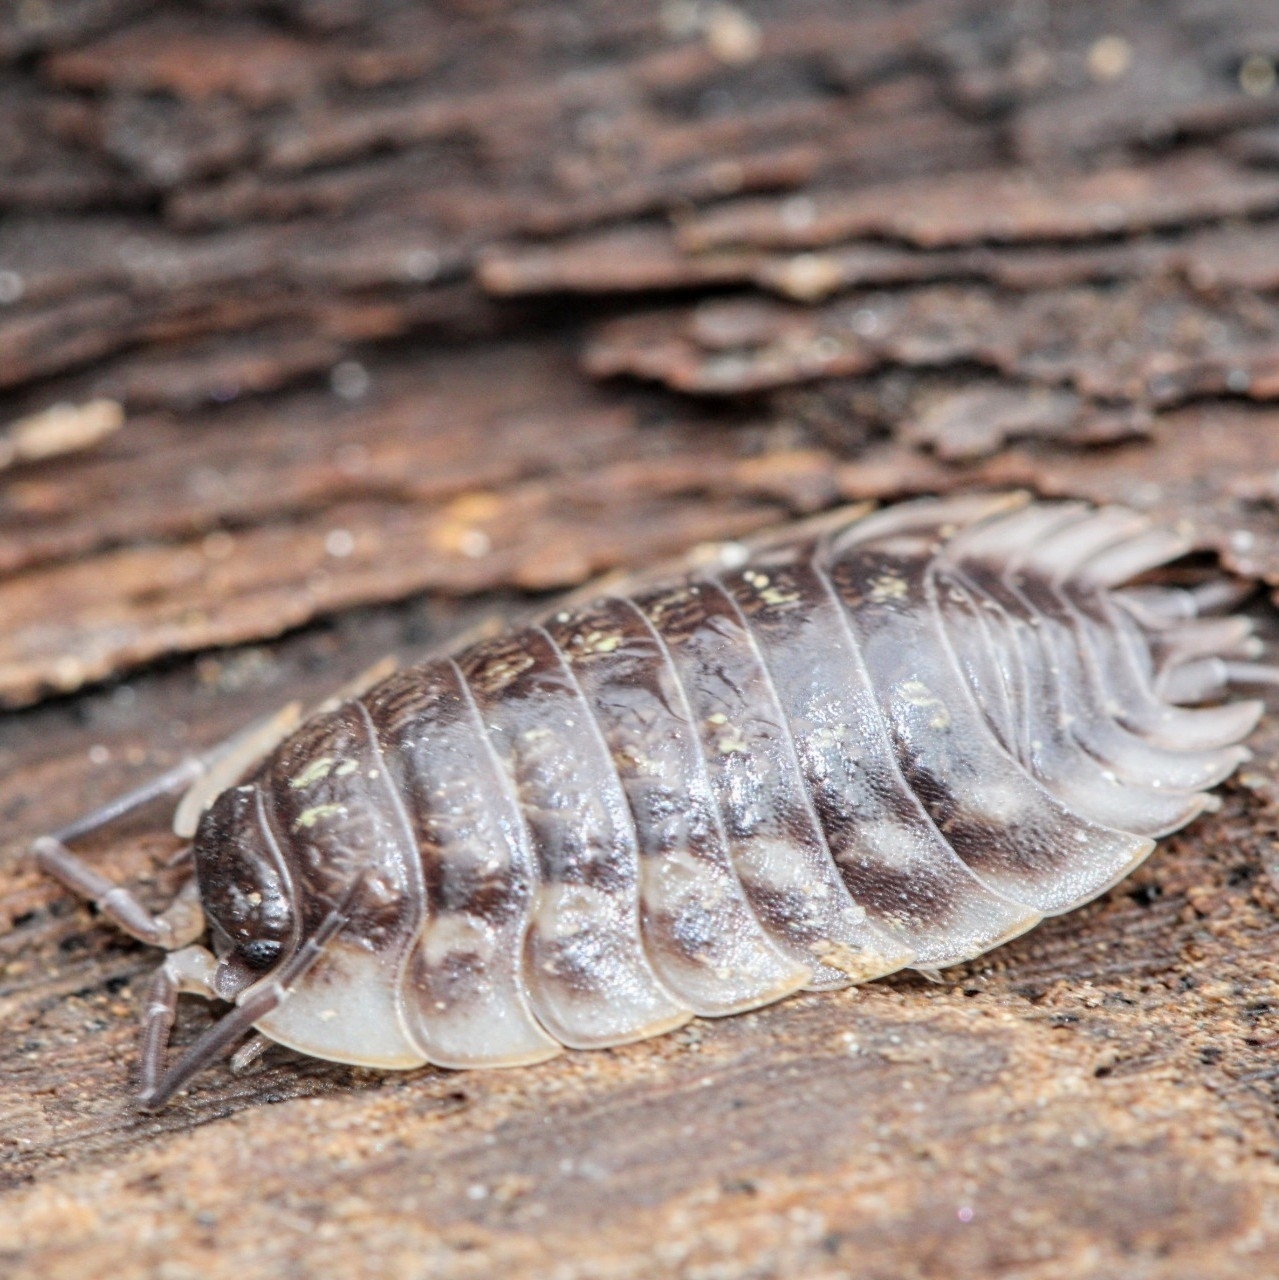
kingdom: Animalia
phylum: Arthropoda
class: Malacostraca
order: Isopoda
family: Oniscidae
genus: Oniscus
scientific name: Oniscus asellus
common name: Common shiny woodlouse
